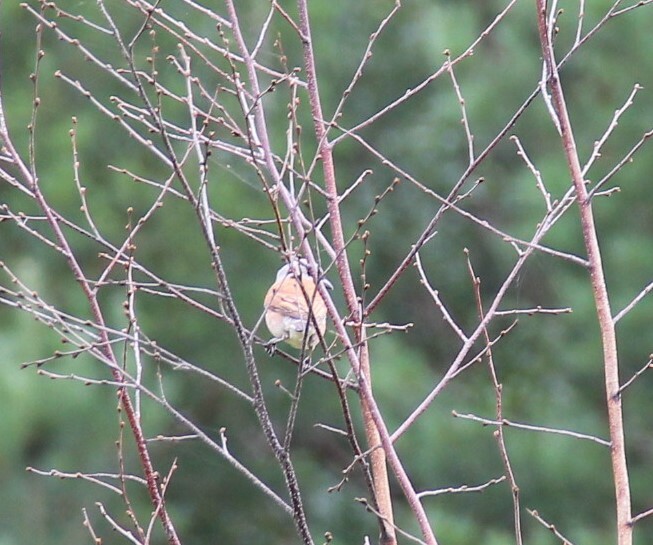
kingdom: Animalia
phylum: Chordata
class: Aves
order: Passeriformes
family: Laniidae
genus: Lanius
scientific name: Lanius collurio
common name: Red-backed shrike
